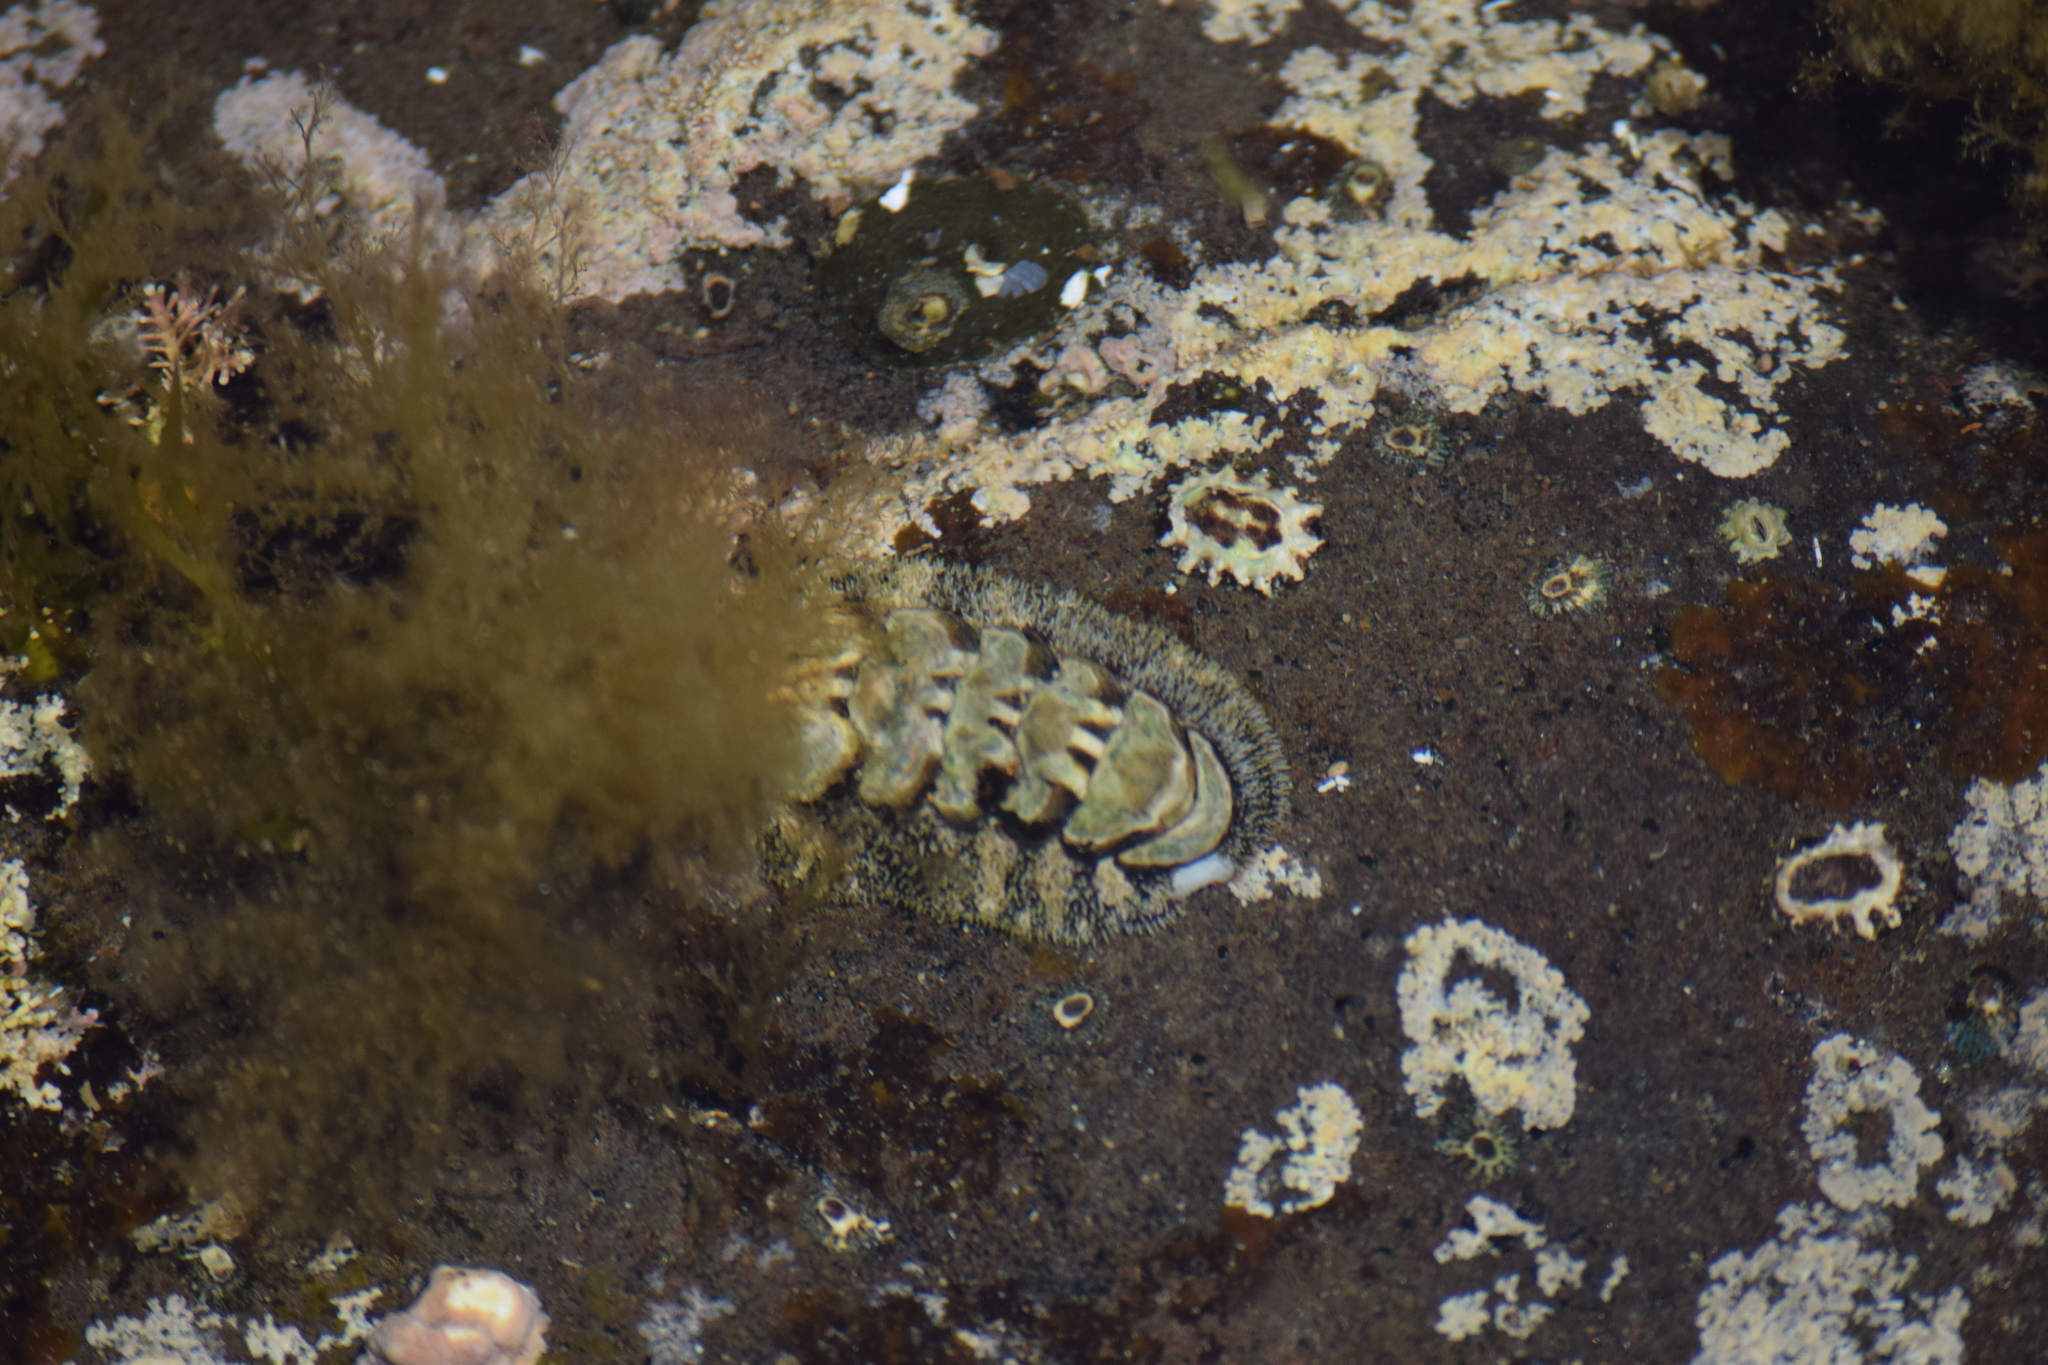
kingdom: Animalia
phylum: Mollusca
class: Polyplacophora
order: Chitonida
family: Tonicellidae
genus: Nuttallina
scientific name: Nuttallina californica
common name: California nuttall chiton
